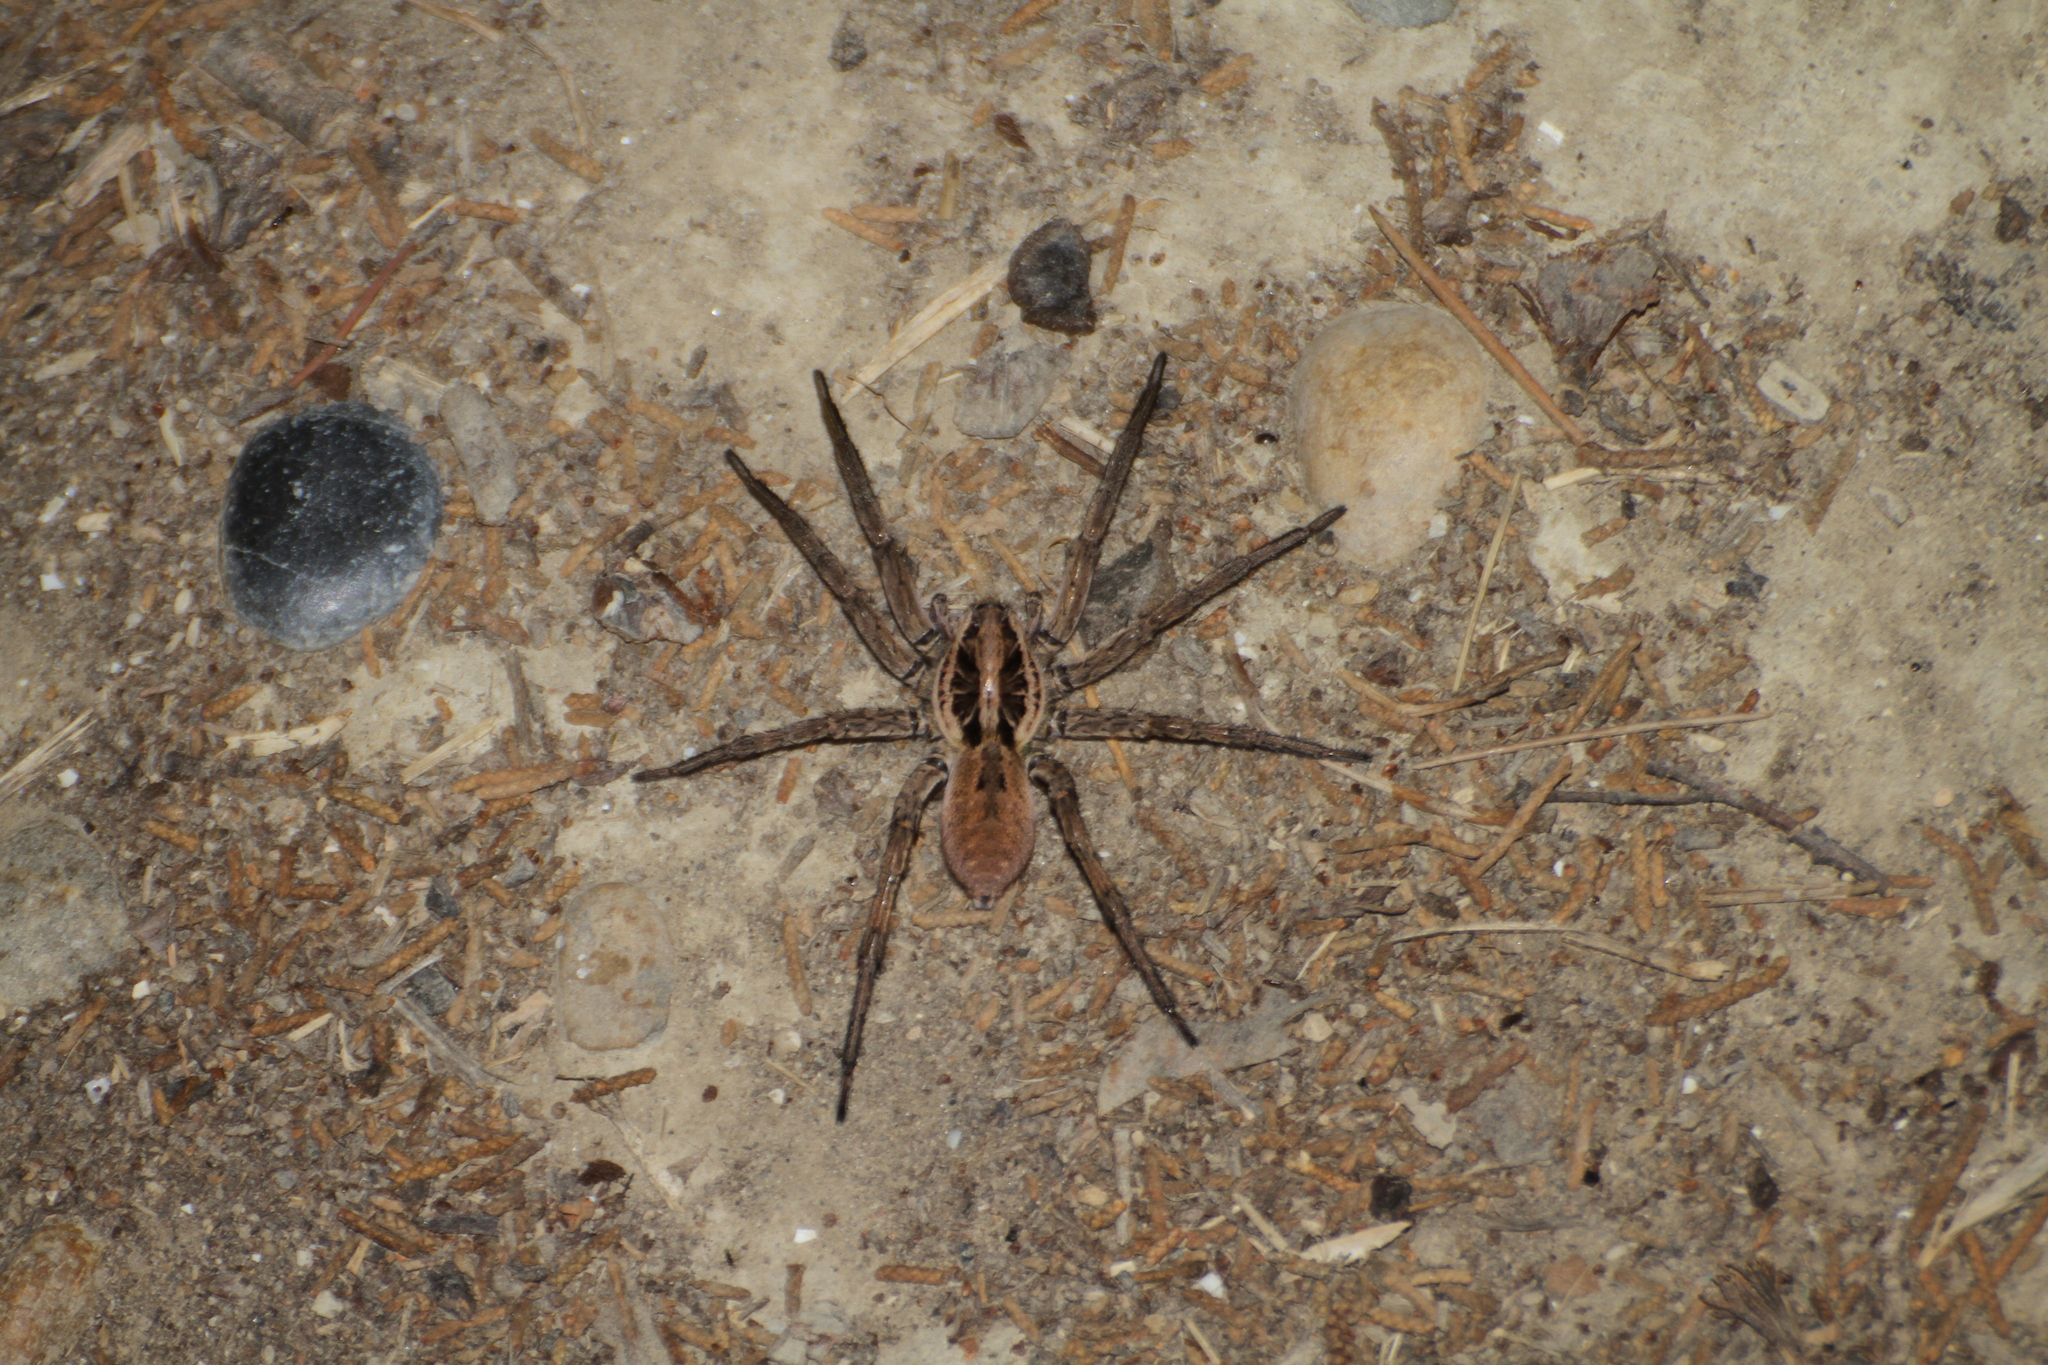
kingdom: Animalia
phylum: Arthropoda
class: Arachnida
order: Araneae
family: Lycosidae
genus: Hogna
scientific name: Hogna radiata
